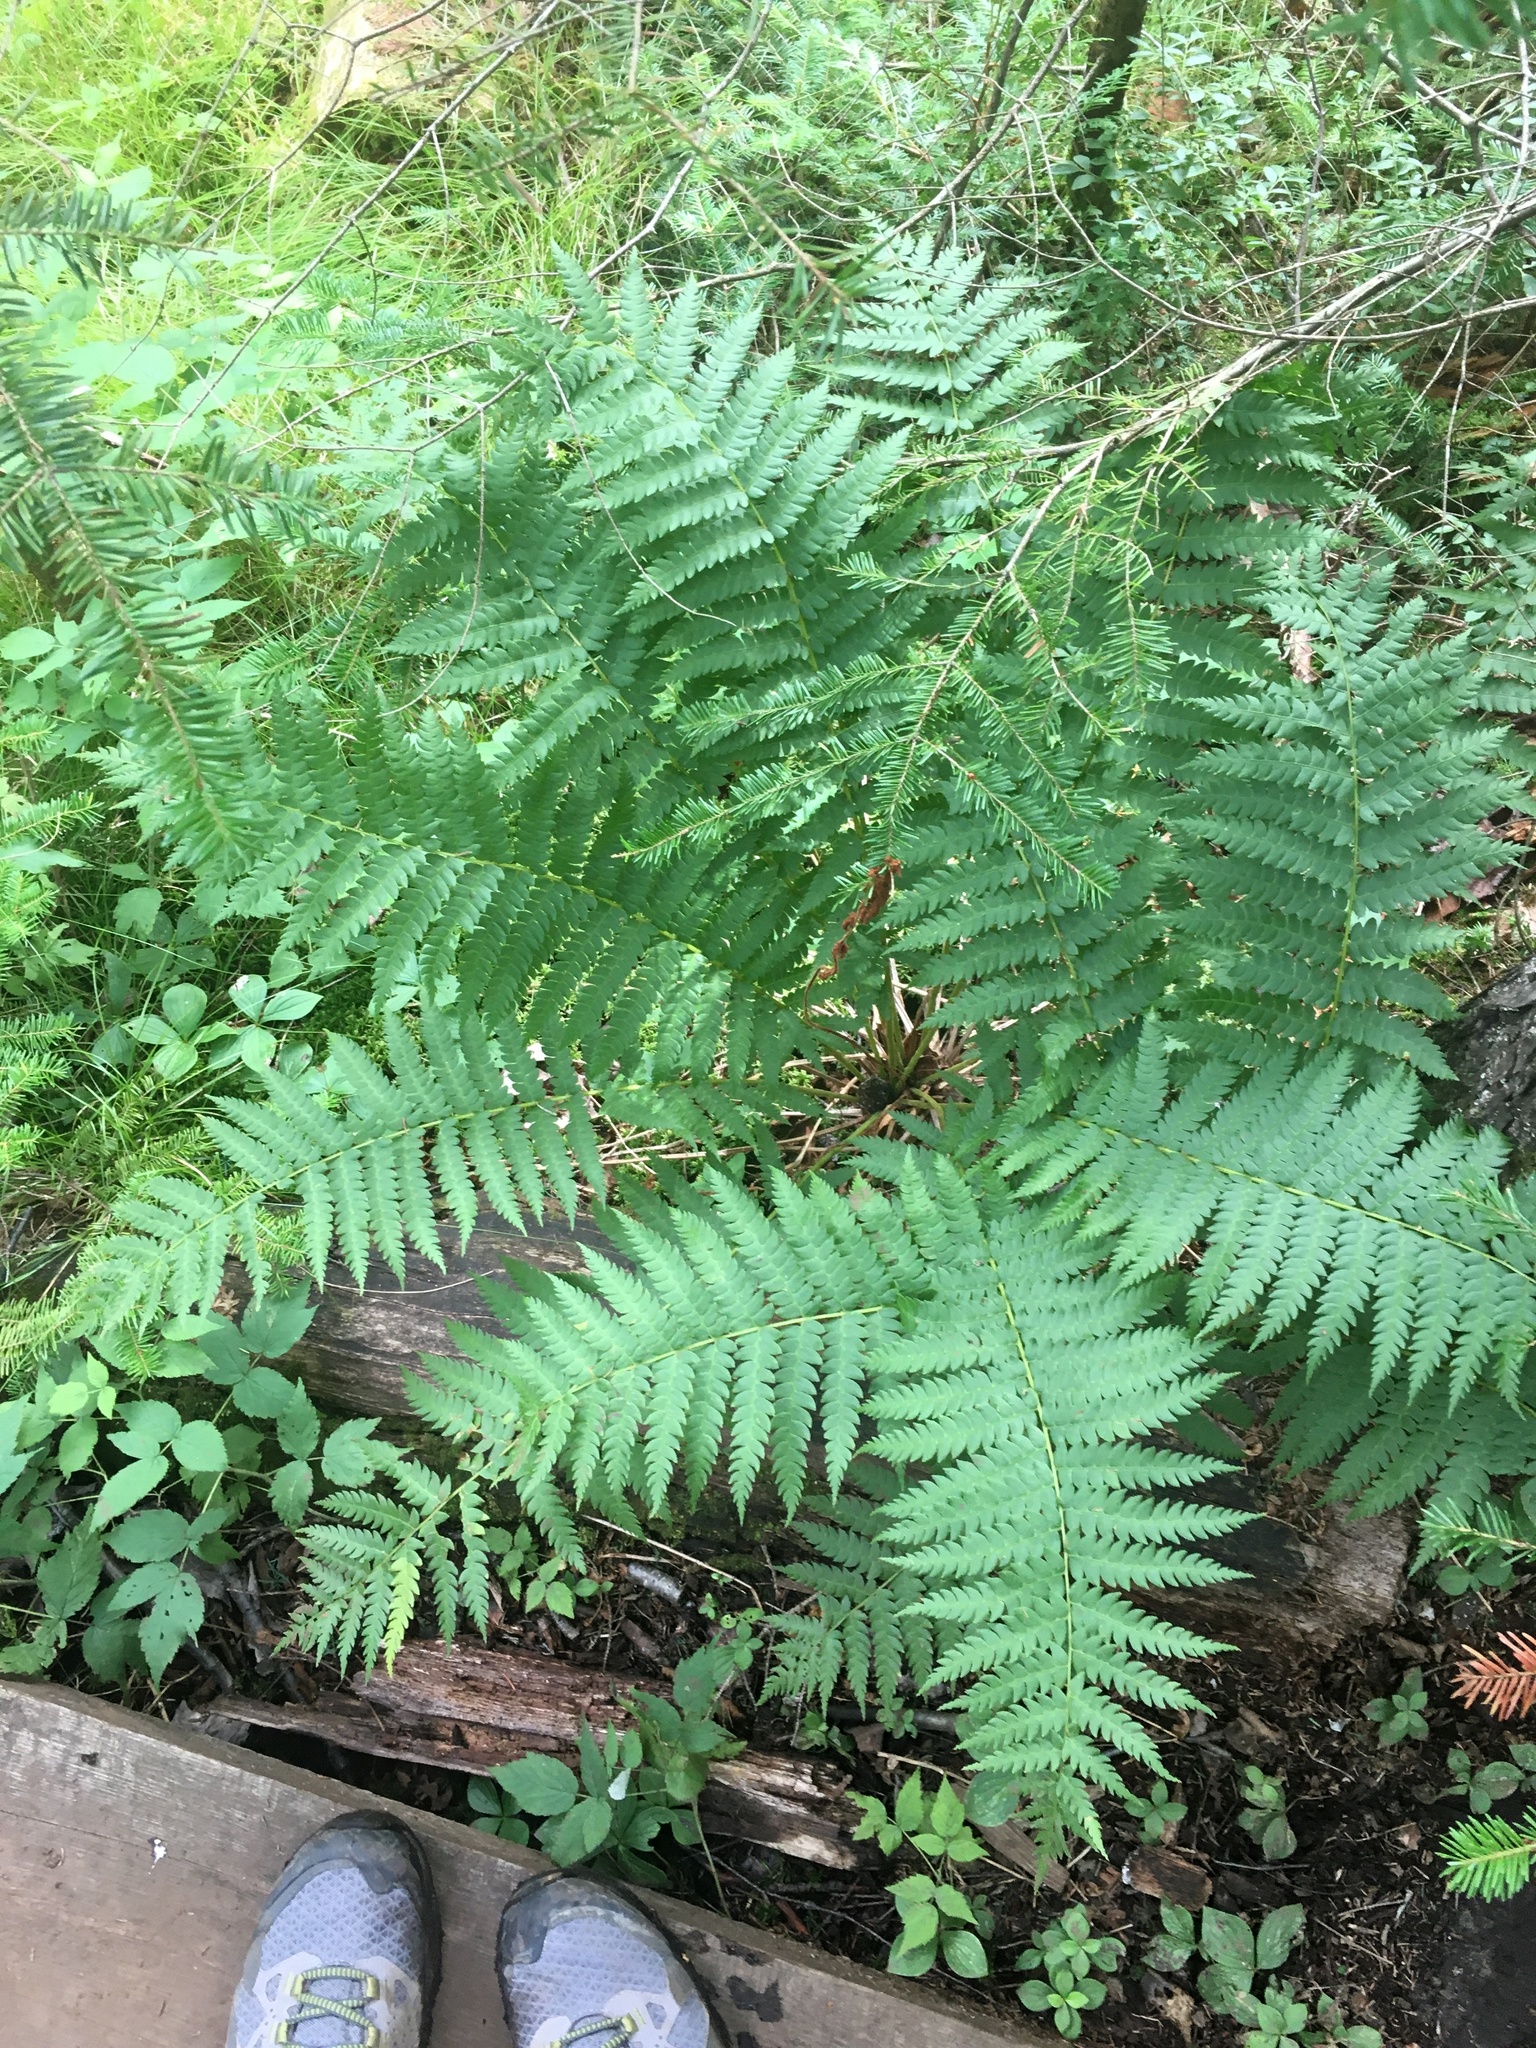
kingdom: Plantae
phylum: Tracheophyta
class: Polypodiopsida
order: Osmundales
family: Osmundaceae
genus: Osmundastrum
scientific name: Osmundastrum cinnamomeum
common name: Cinnamon fern
